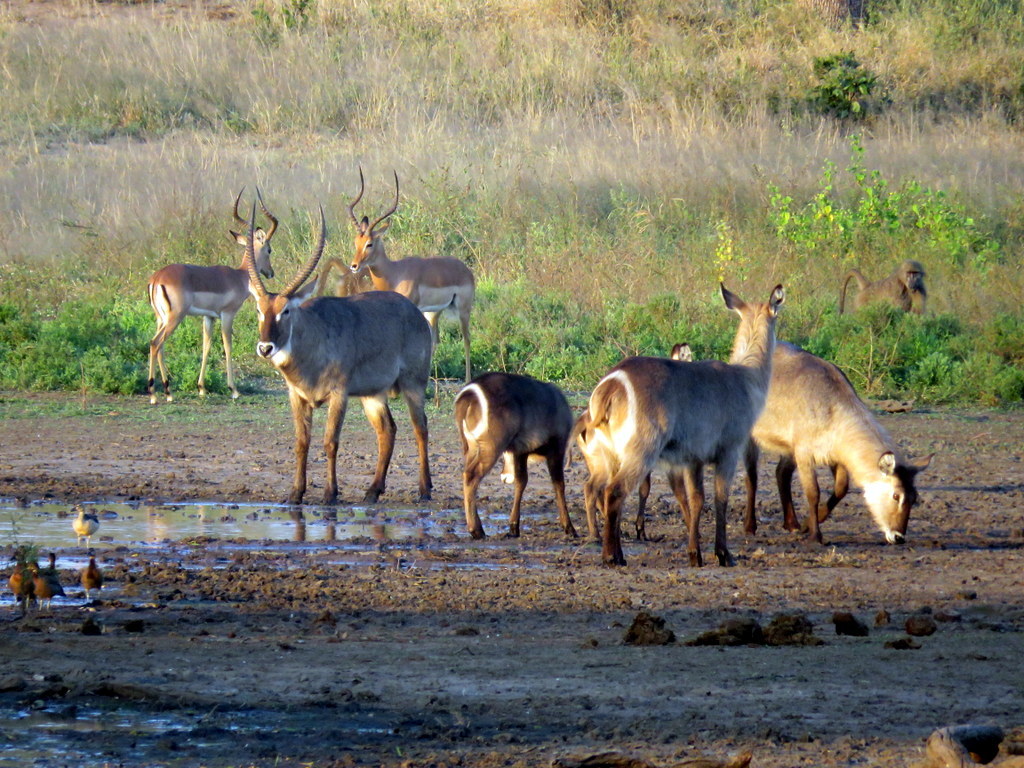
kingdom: Animalia
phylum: Chordata
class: Mammalia
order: Artiodactyla
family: Bovidae
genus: Kobus
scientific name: Kobus ellipsiprymnus
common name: Waterbuck
